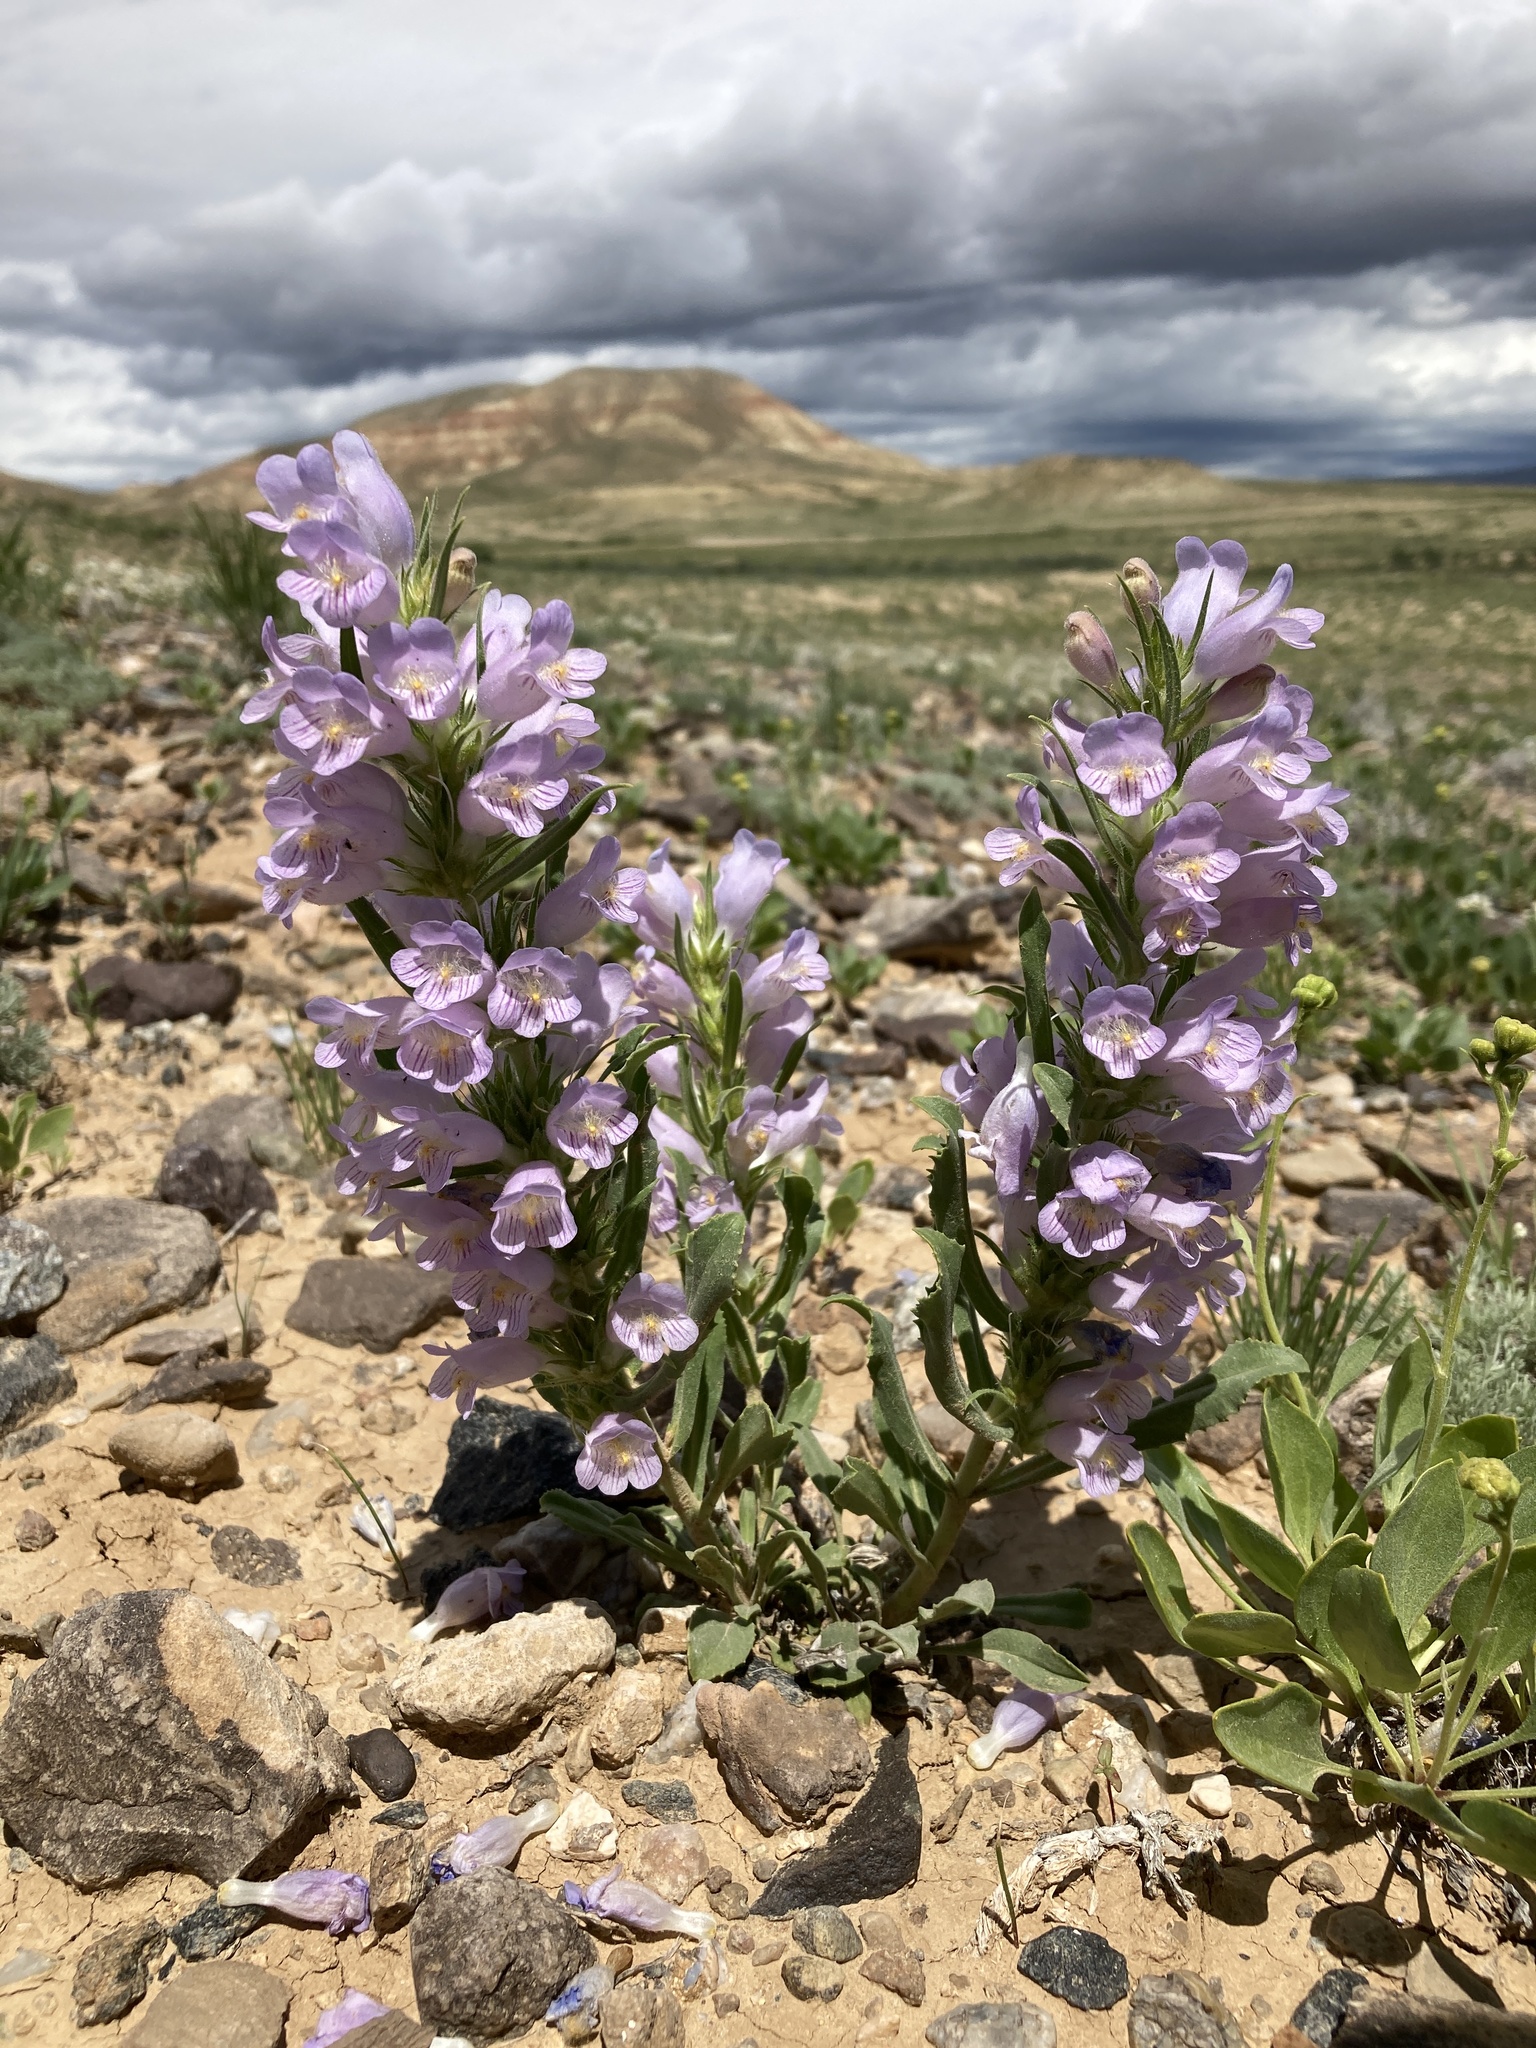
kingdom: Plantae
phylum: Tracheophyta
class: Magnoliopsida
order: Lamiales
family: Plantaginaceae
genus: Penstemon
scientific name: Penstemon eriantherus
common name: Crested beardtongue
